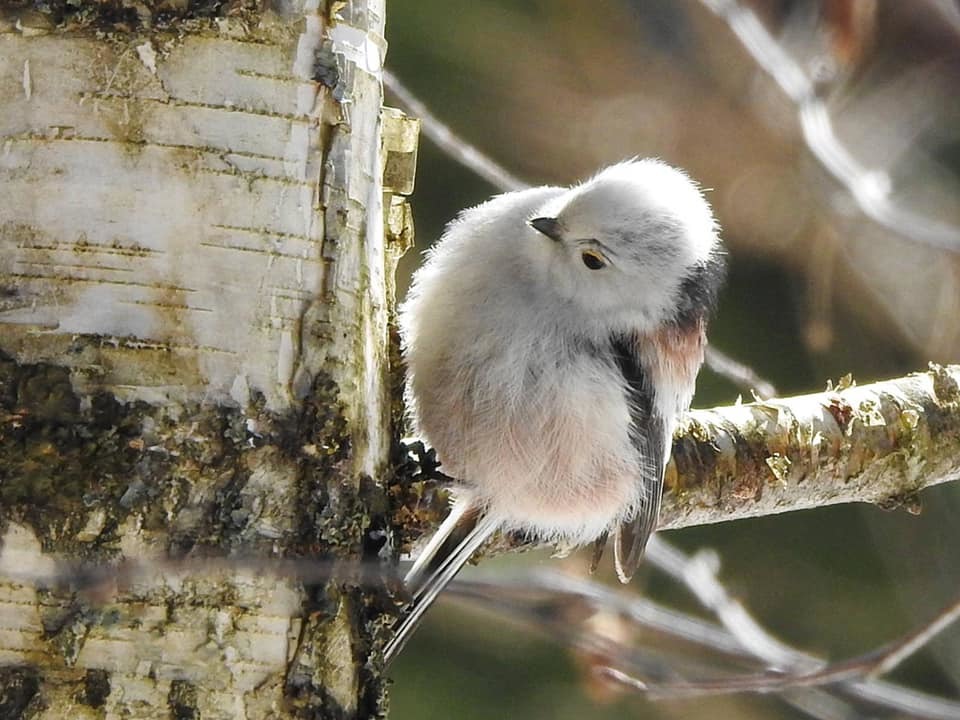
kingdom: Animalia
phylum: Chordata
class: Aves
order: Passeriformes
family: Aegithalidae
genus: Aegithalos
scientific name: Aegithalos caudatus
